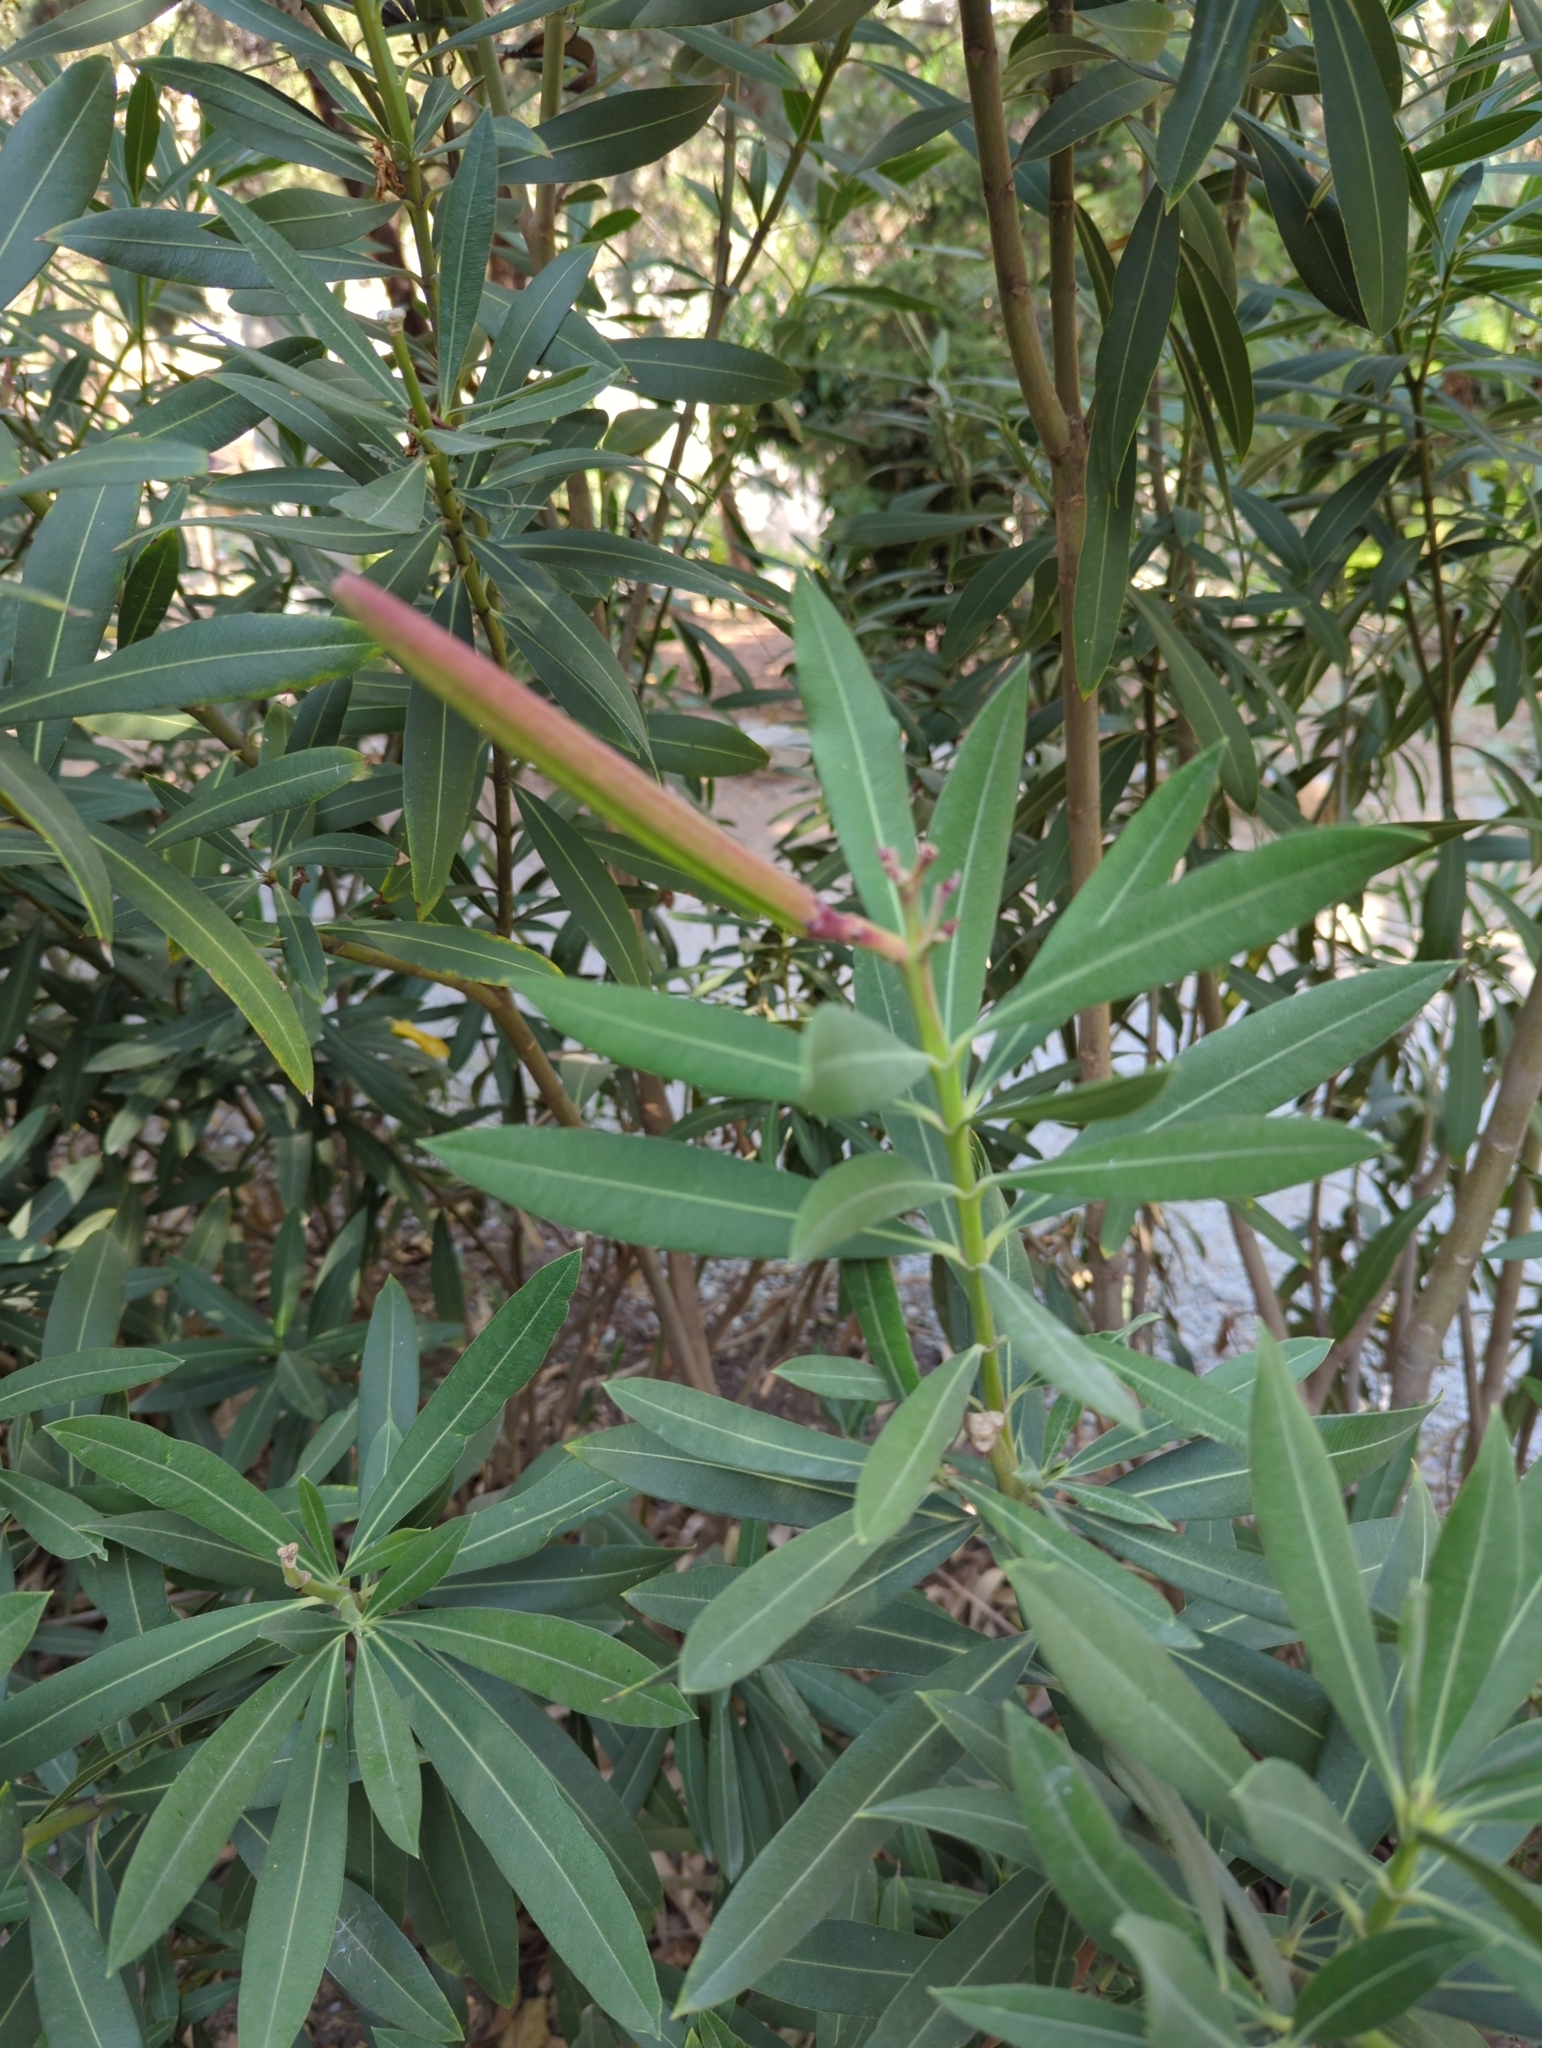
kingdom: Plantae
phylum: Tracheophyta
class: Magnoliopsida
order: Gentianales
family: Apocynaceae
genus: Nerium
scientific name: Nerium oleander
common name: Oleander
